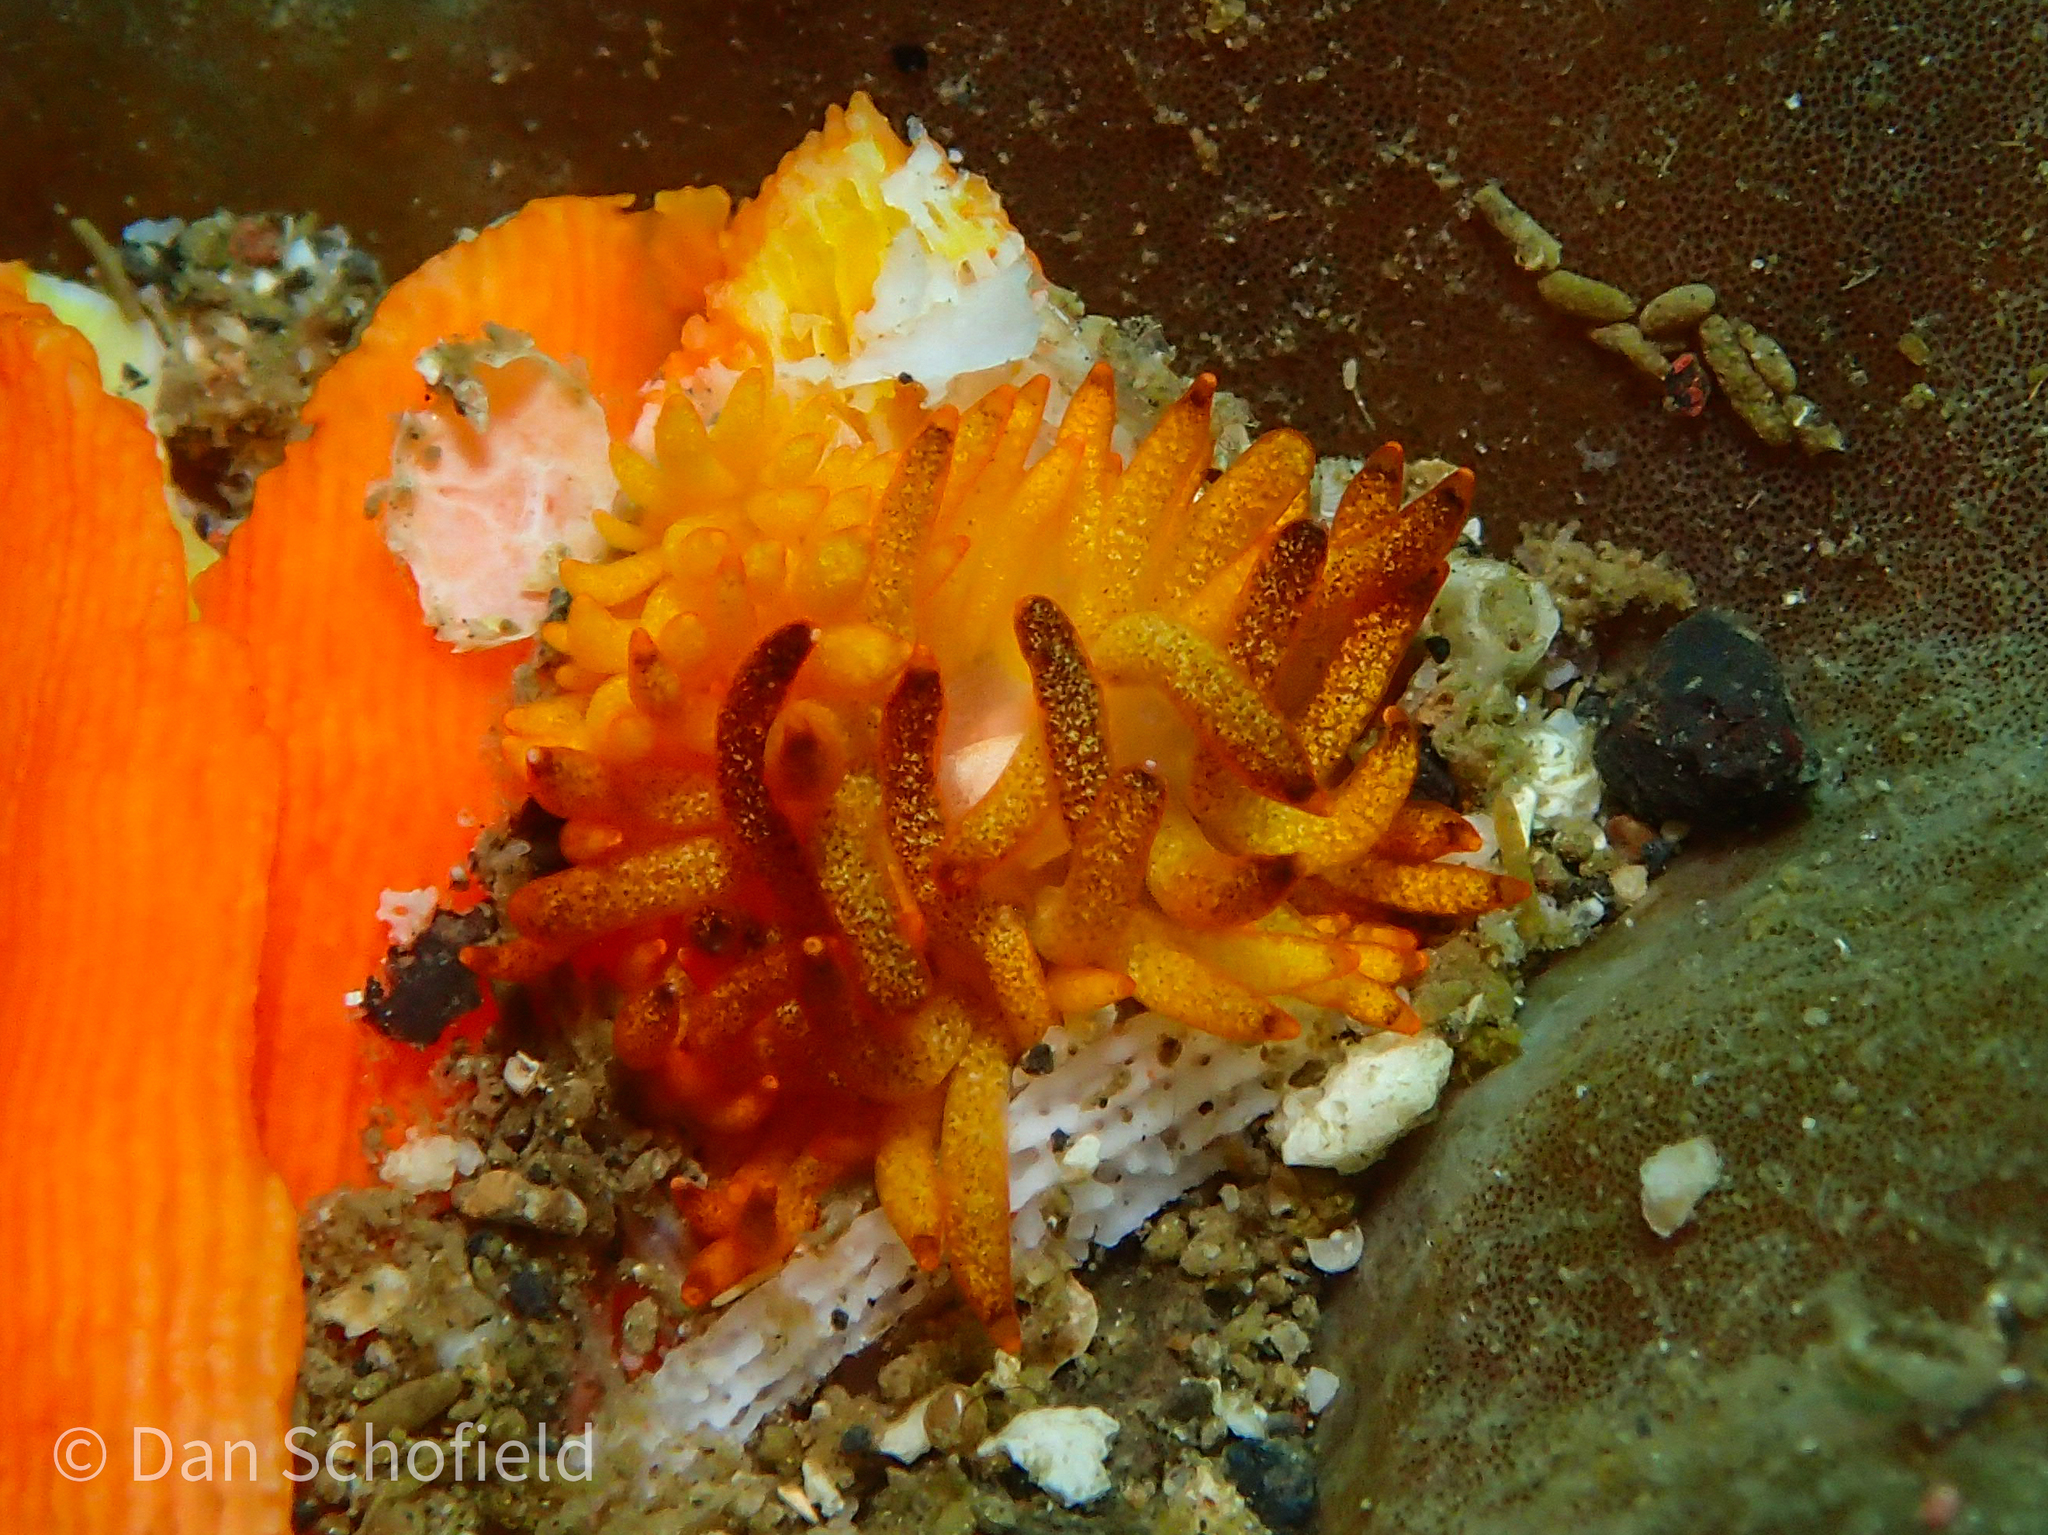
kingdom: Animalia
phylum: Mollusca
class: Gastropoda
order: Nudibranchia
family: Trinchesiidae
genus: Phestilla
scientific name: Phestilla melanobrachia
